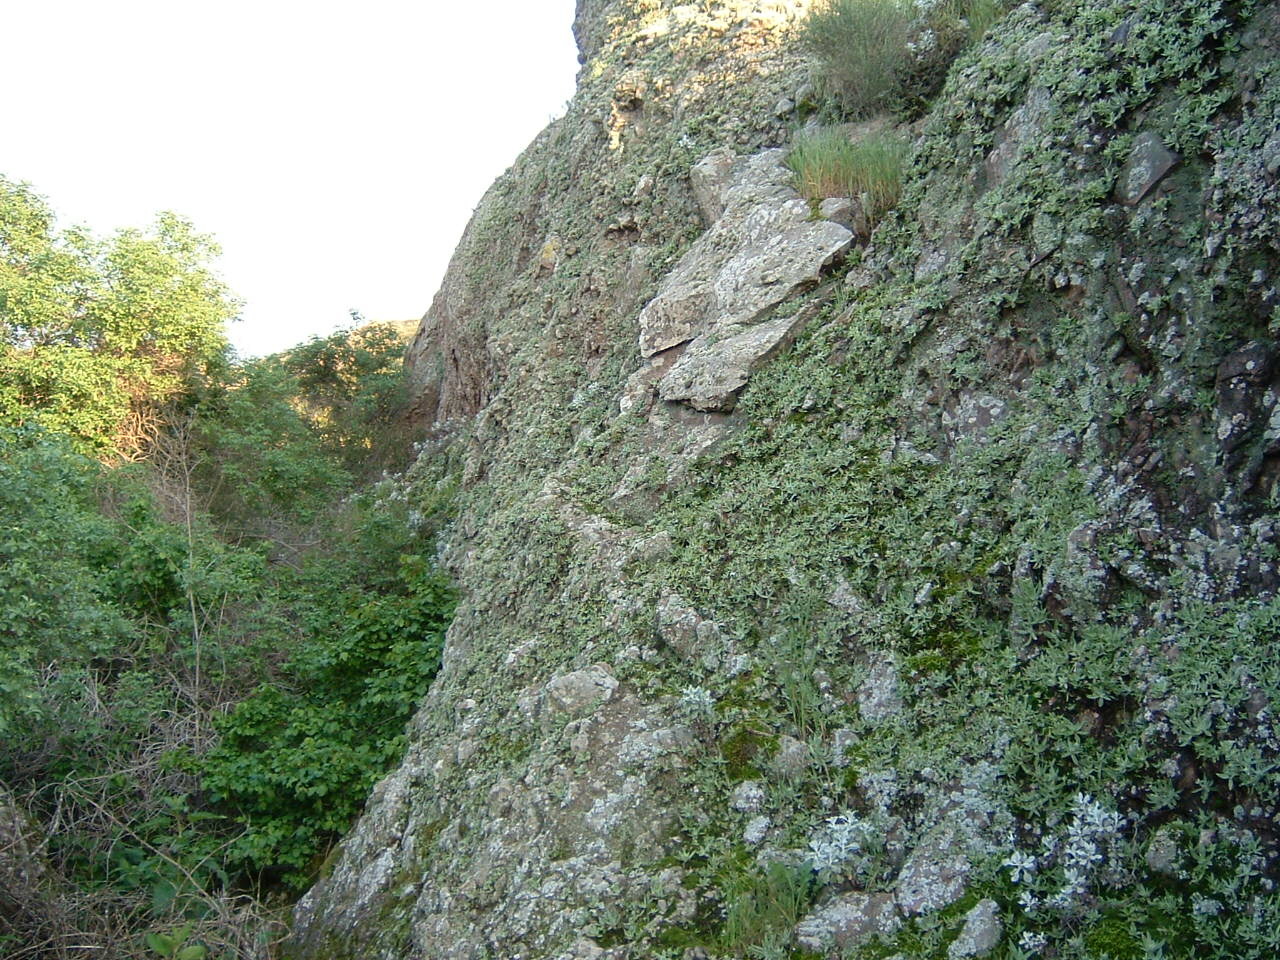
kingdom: Plantae
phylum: Tracheophyta
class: Magnoliopsida
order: Saxifragales
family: Crassulaceae
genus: Dudleya
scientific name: Dudleya verityi
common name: Verity dudleya
